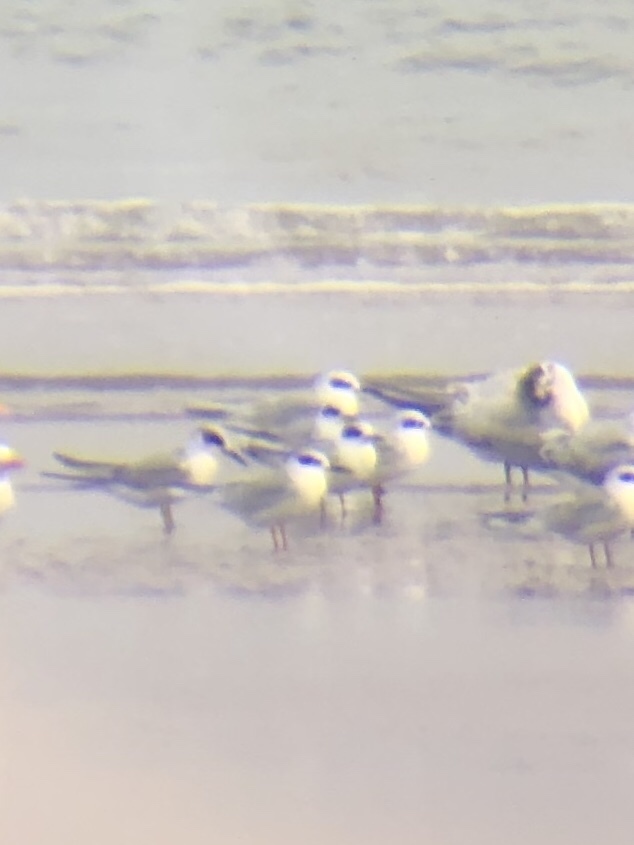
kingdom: Animalia
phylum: Chordata
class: Aves
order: Charadriiformes
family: Laridae
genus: Sterna
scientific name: Sterna forsteri
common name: Forster's tern
